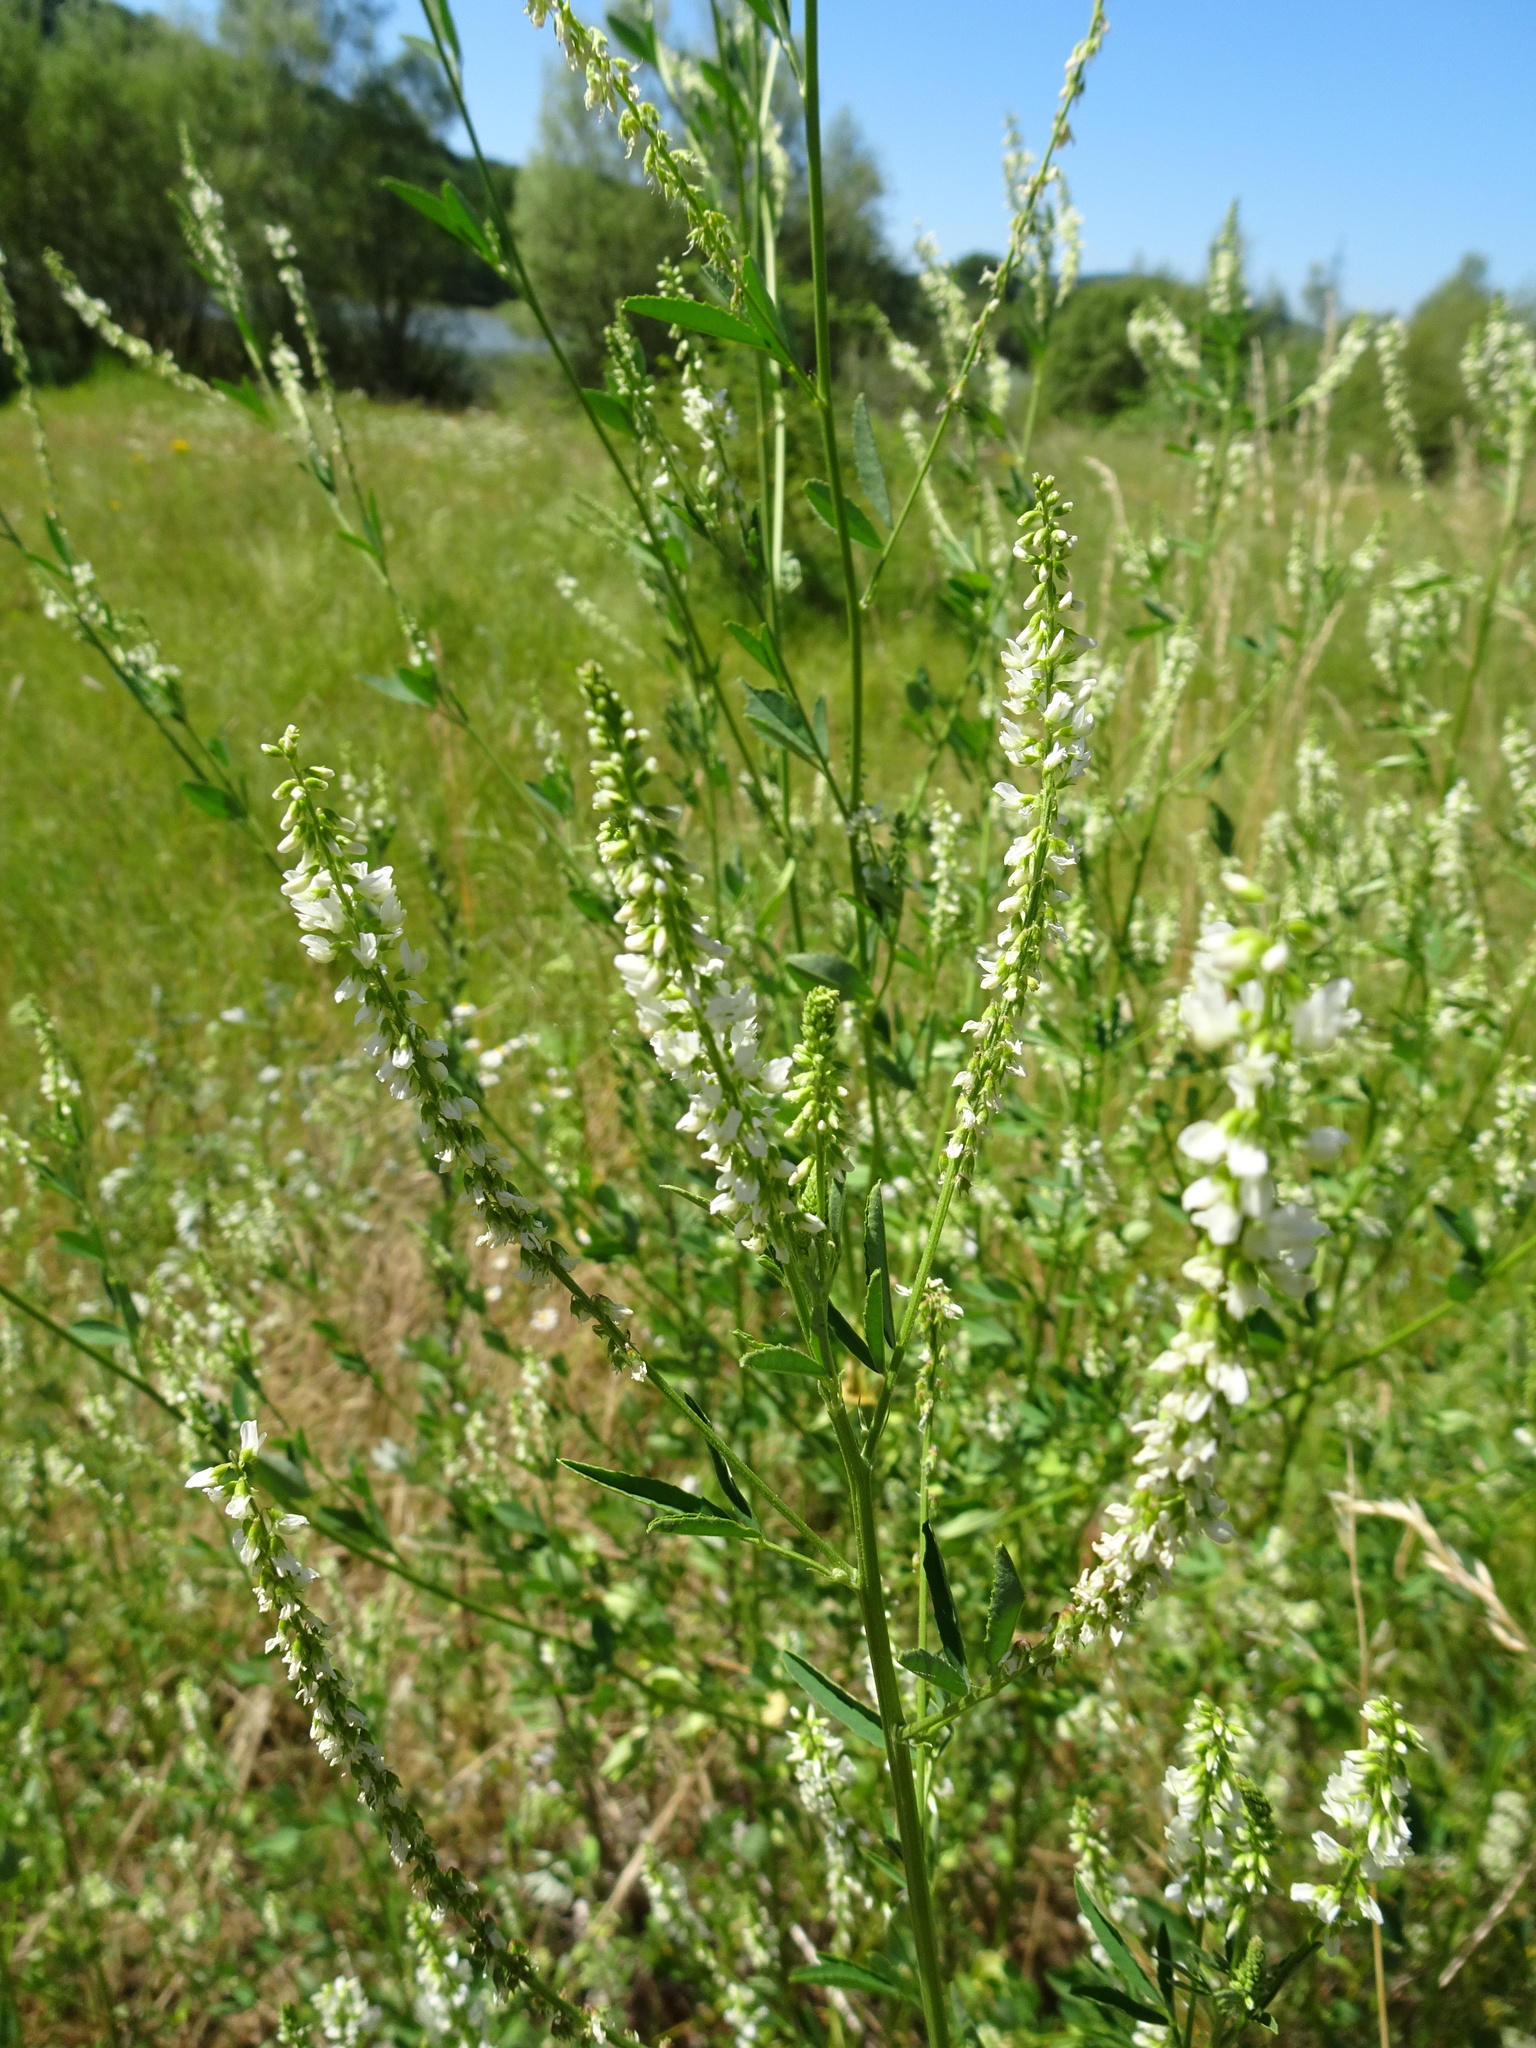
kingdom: Plantae
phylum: Tracheophyta
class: Magnoliopsida
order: Fabales
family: Fabaceae
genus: Melilotus
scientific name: Melilotus albus
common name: White melilot
